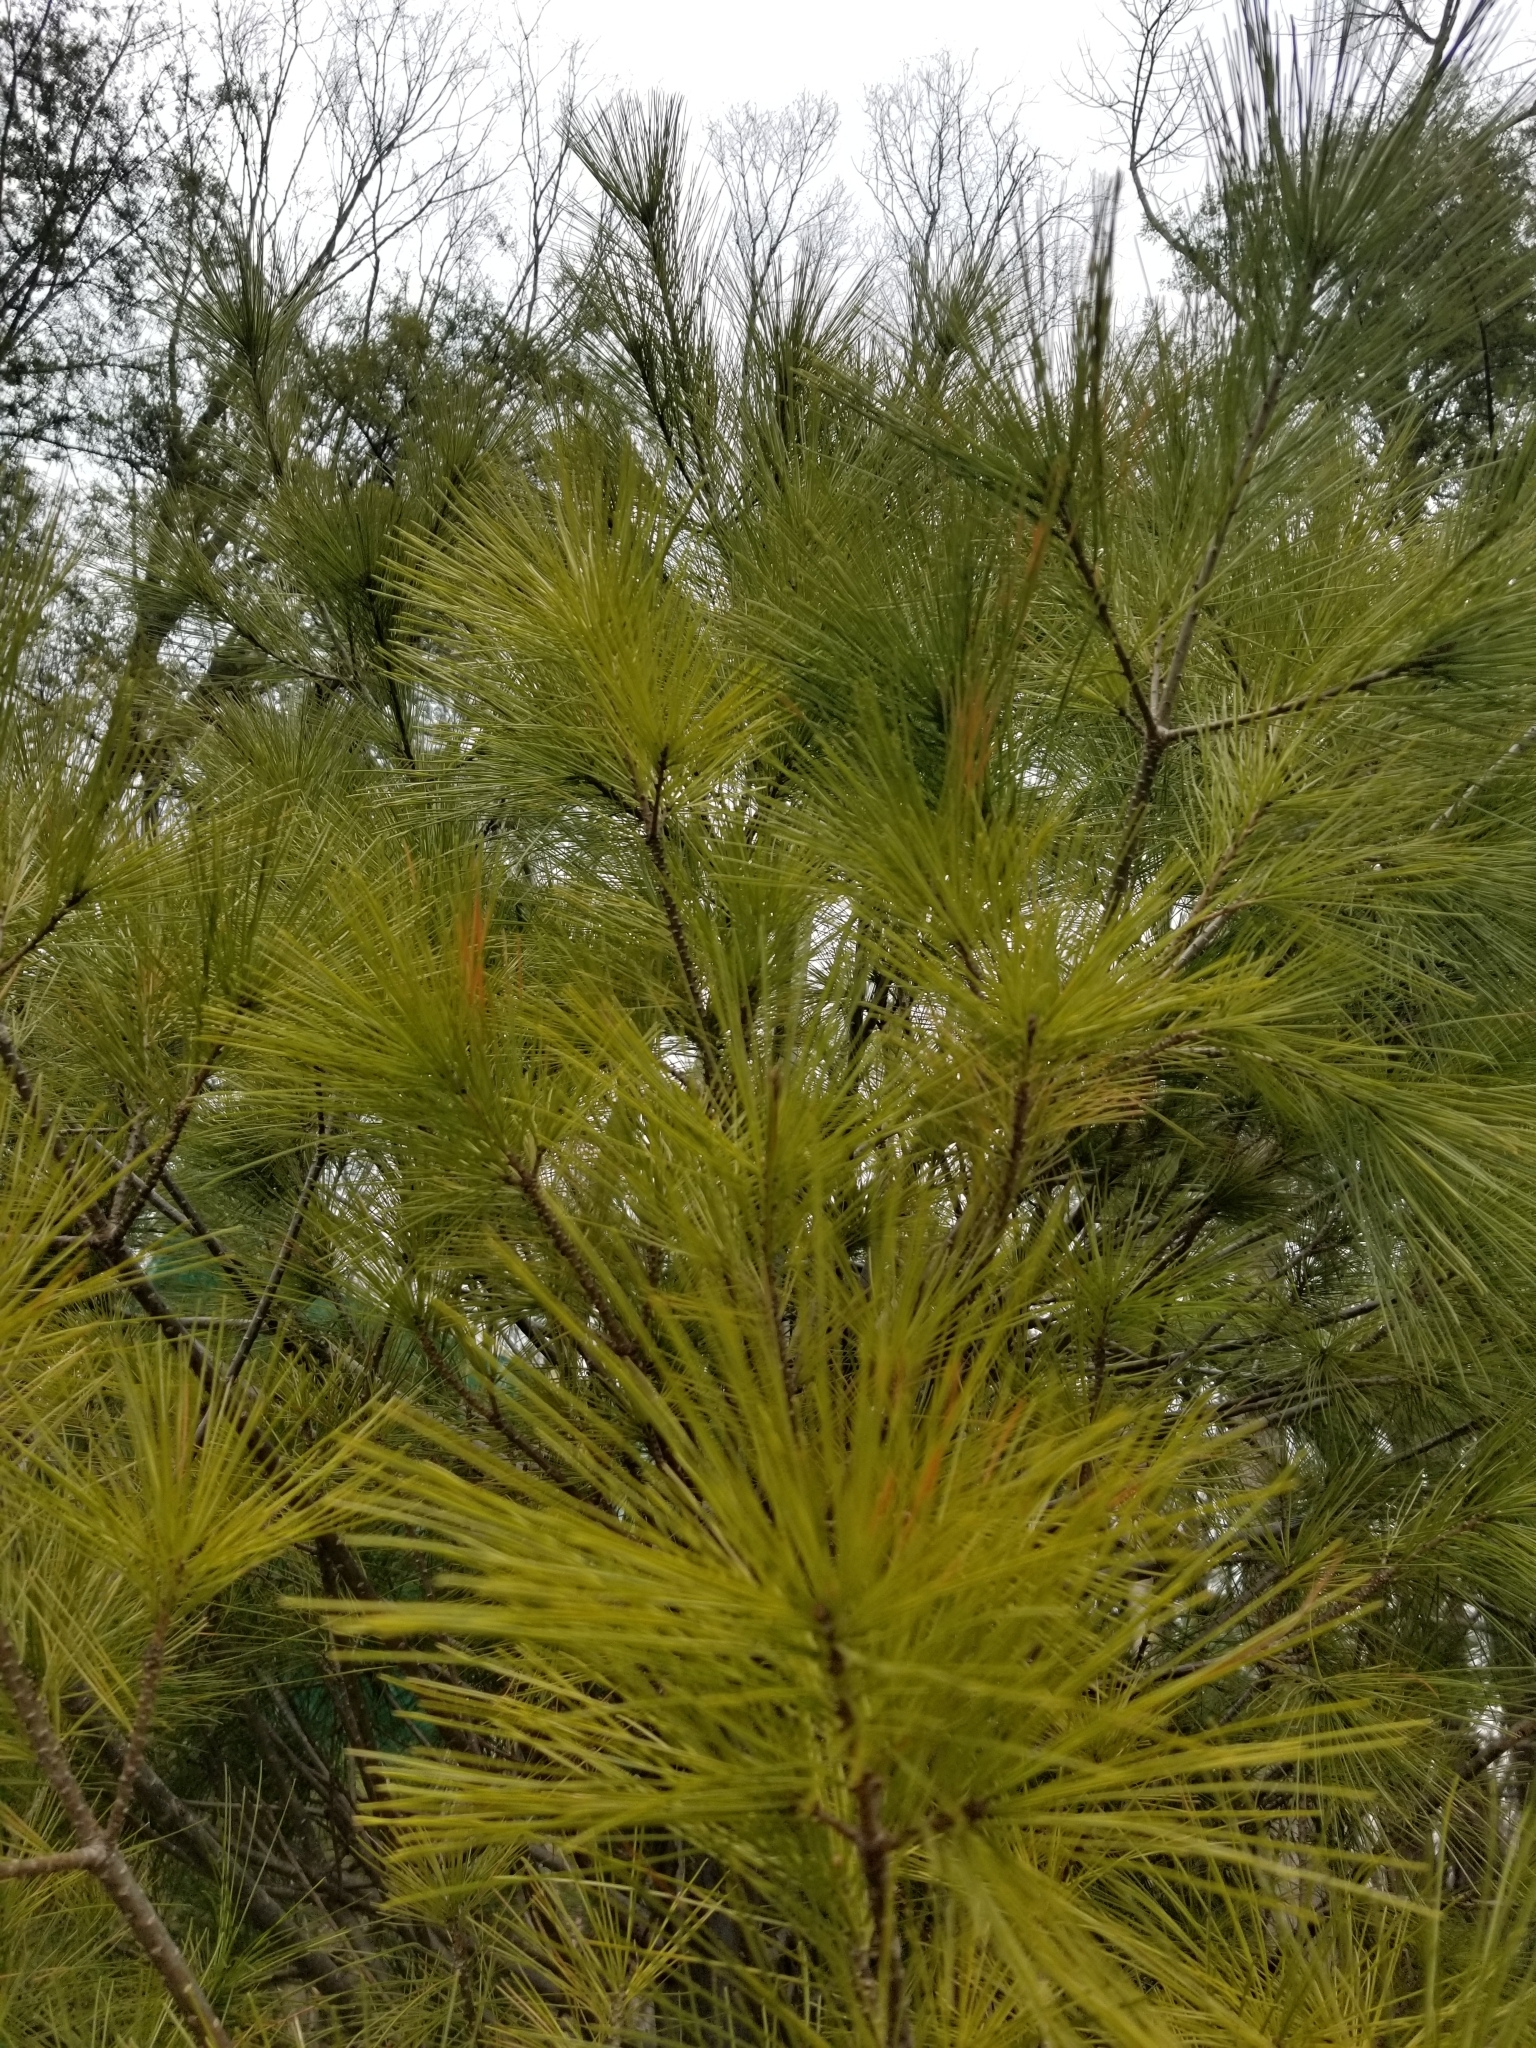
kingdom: Plantae
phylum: Tracheophyta
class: Pinopsida
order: Pinales
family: Pinaceae
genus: Pinus
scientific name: Pinus strobus
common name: Weymouth pine
